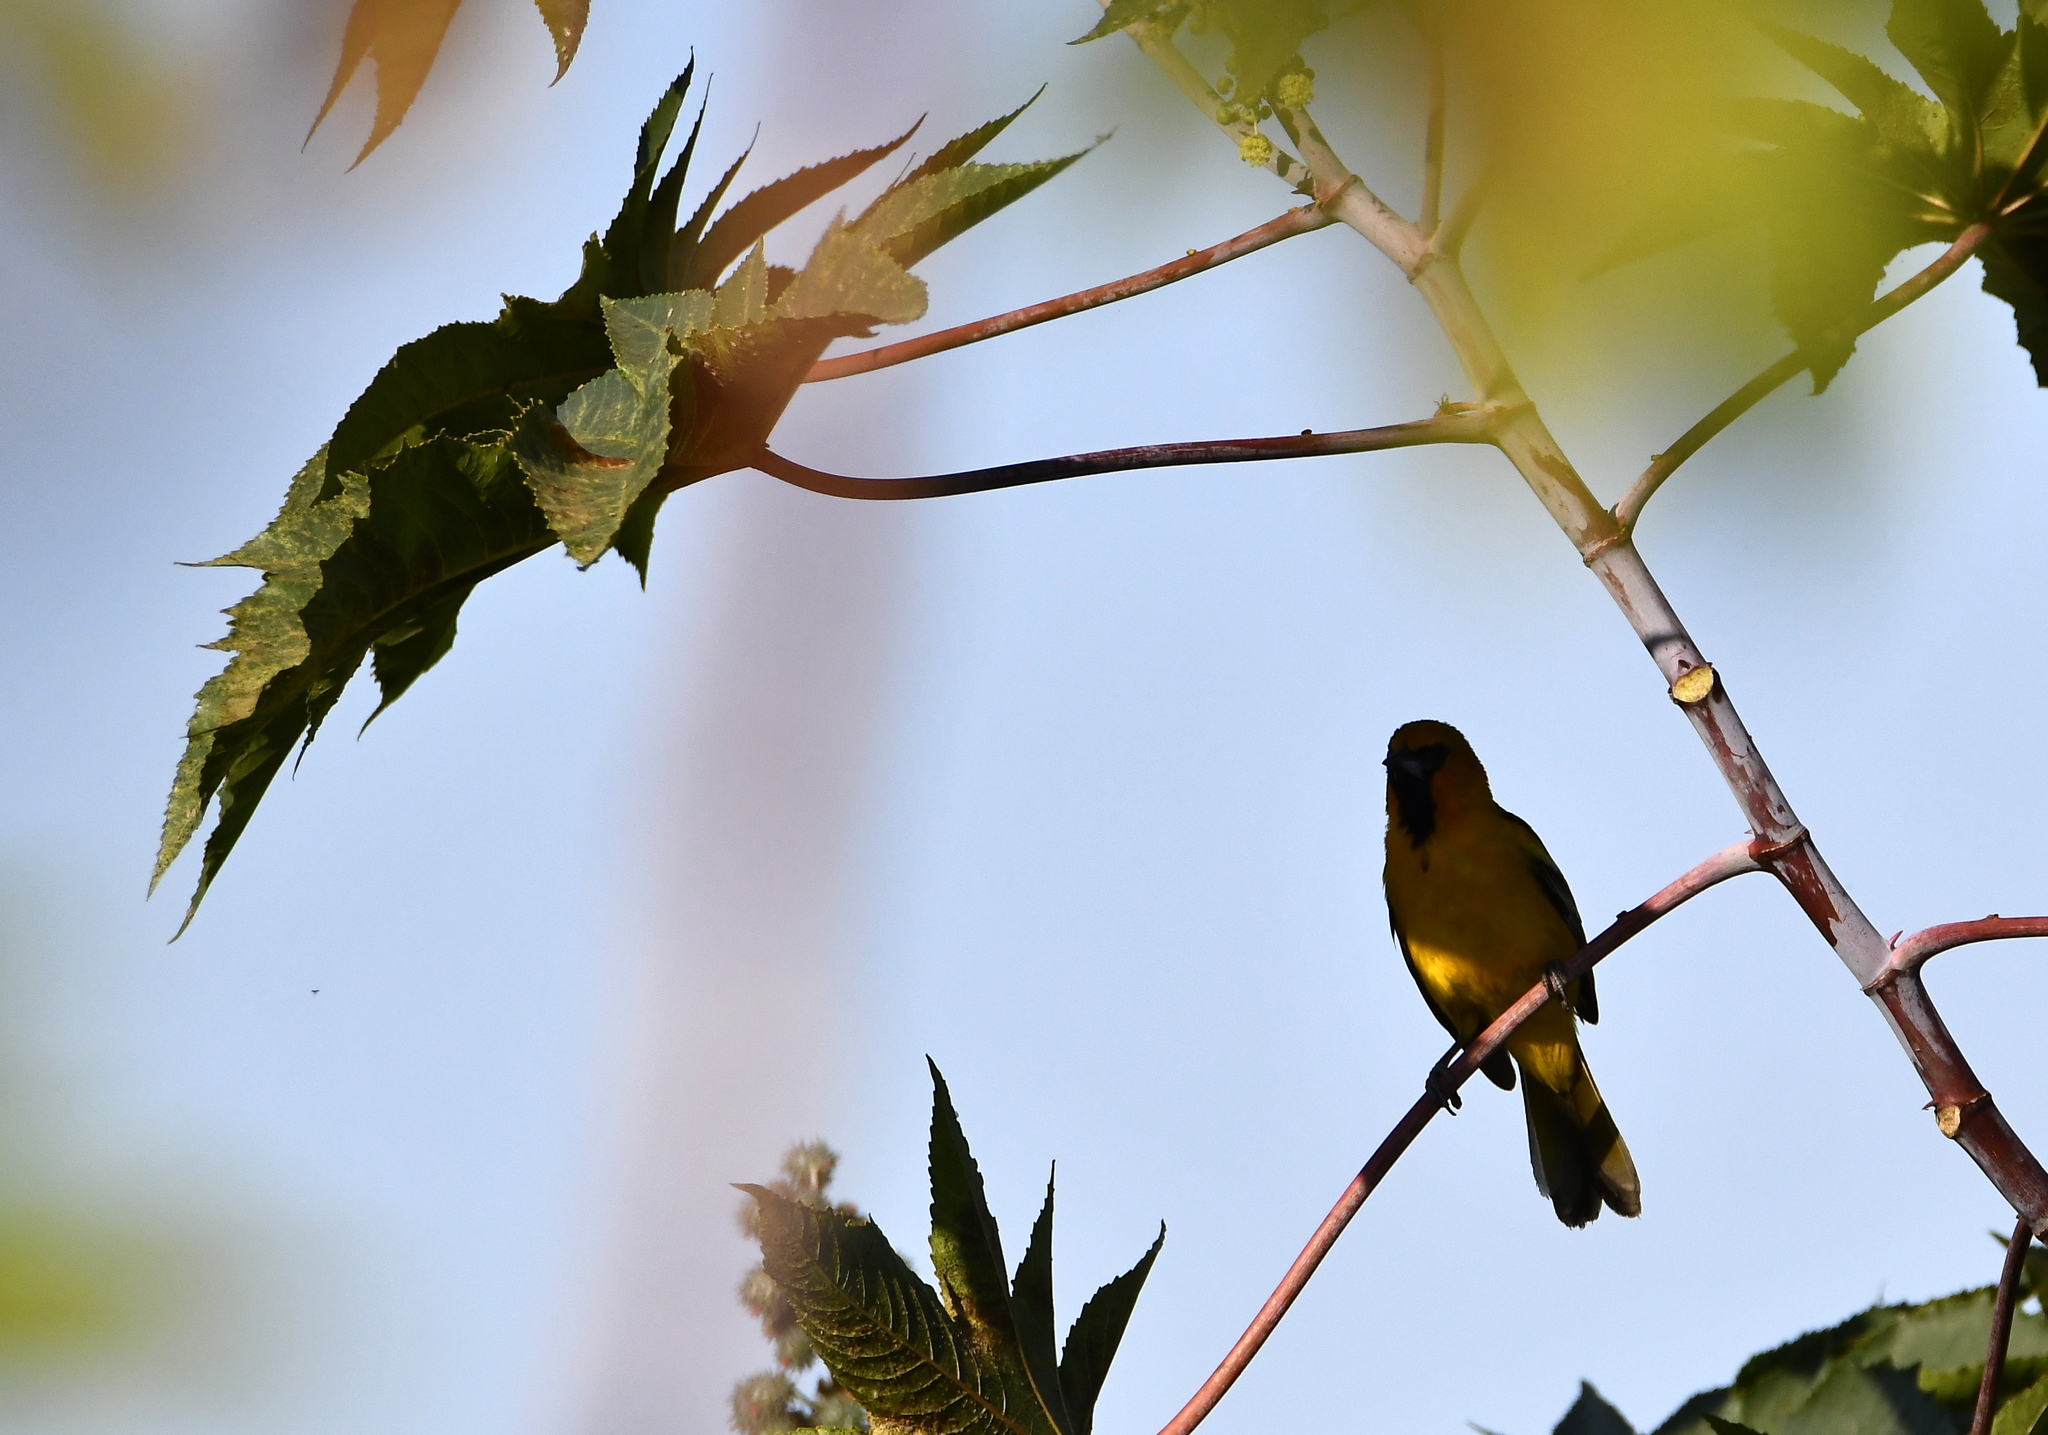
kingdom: Animalia
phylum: Chordata
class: Aves
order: Passeriformes
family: Icteridae
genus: Icterus
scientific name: Icterus spurius
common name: Orchard oriole
